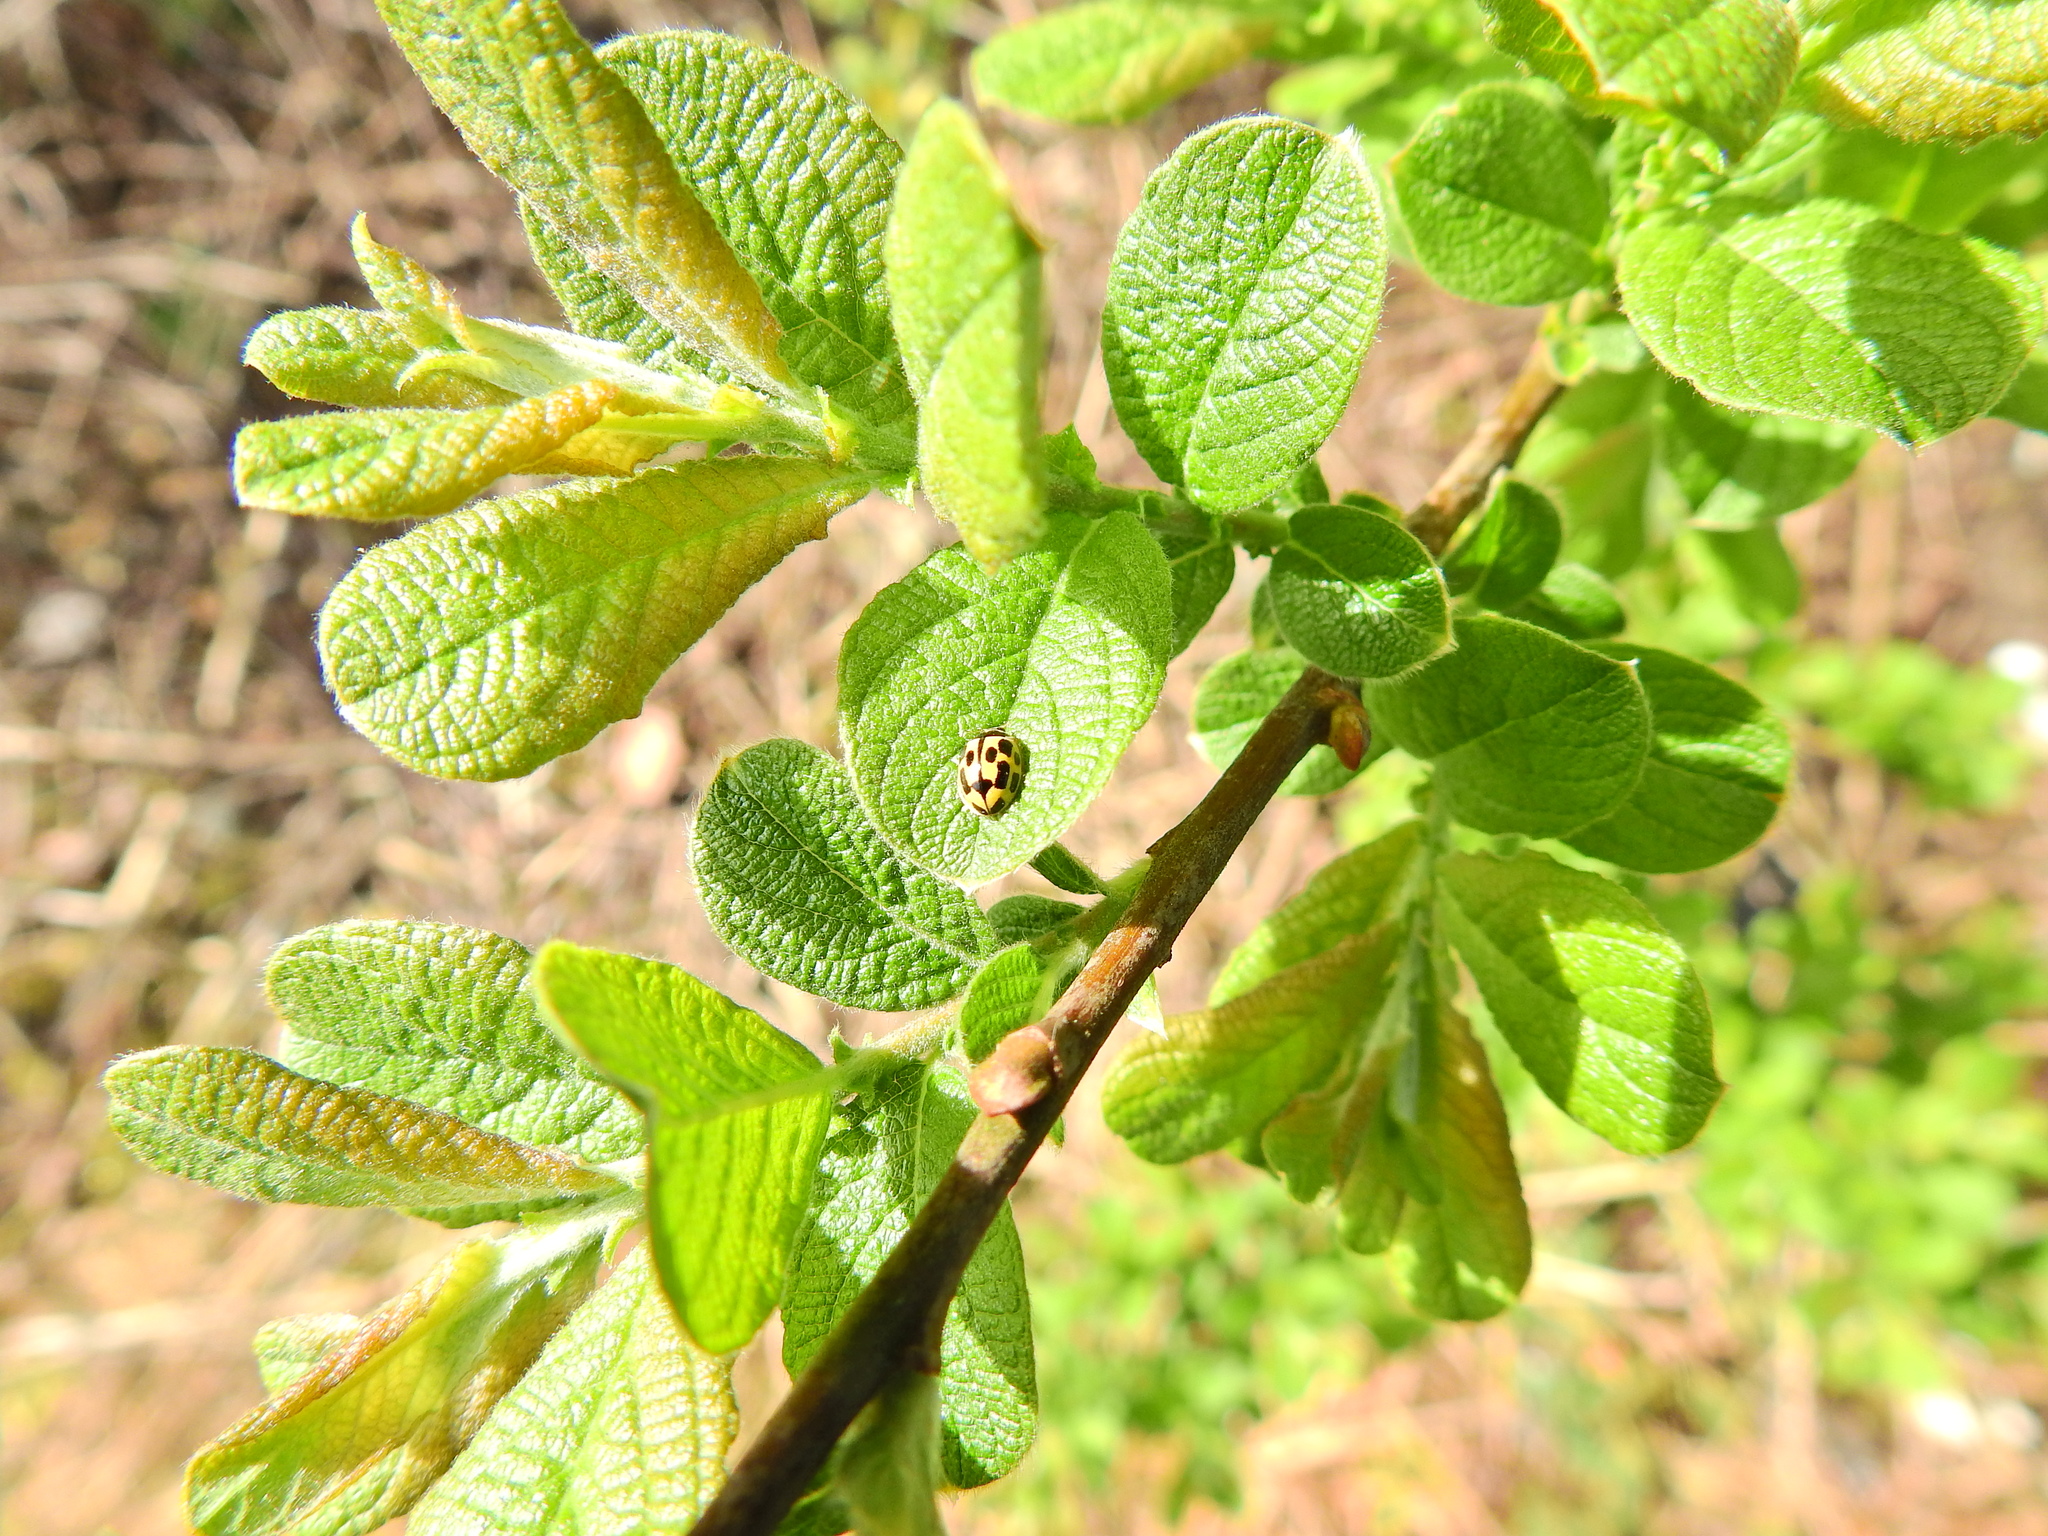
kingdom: Animalia
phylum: Arthropoda
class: Insecta
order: Coleoptera
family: Coccinellidae
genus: Propylaea
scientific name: Propylaea quatuordecimpunctata
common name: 14-spotted ladybird beetle
